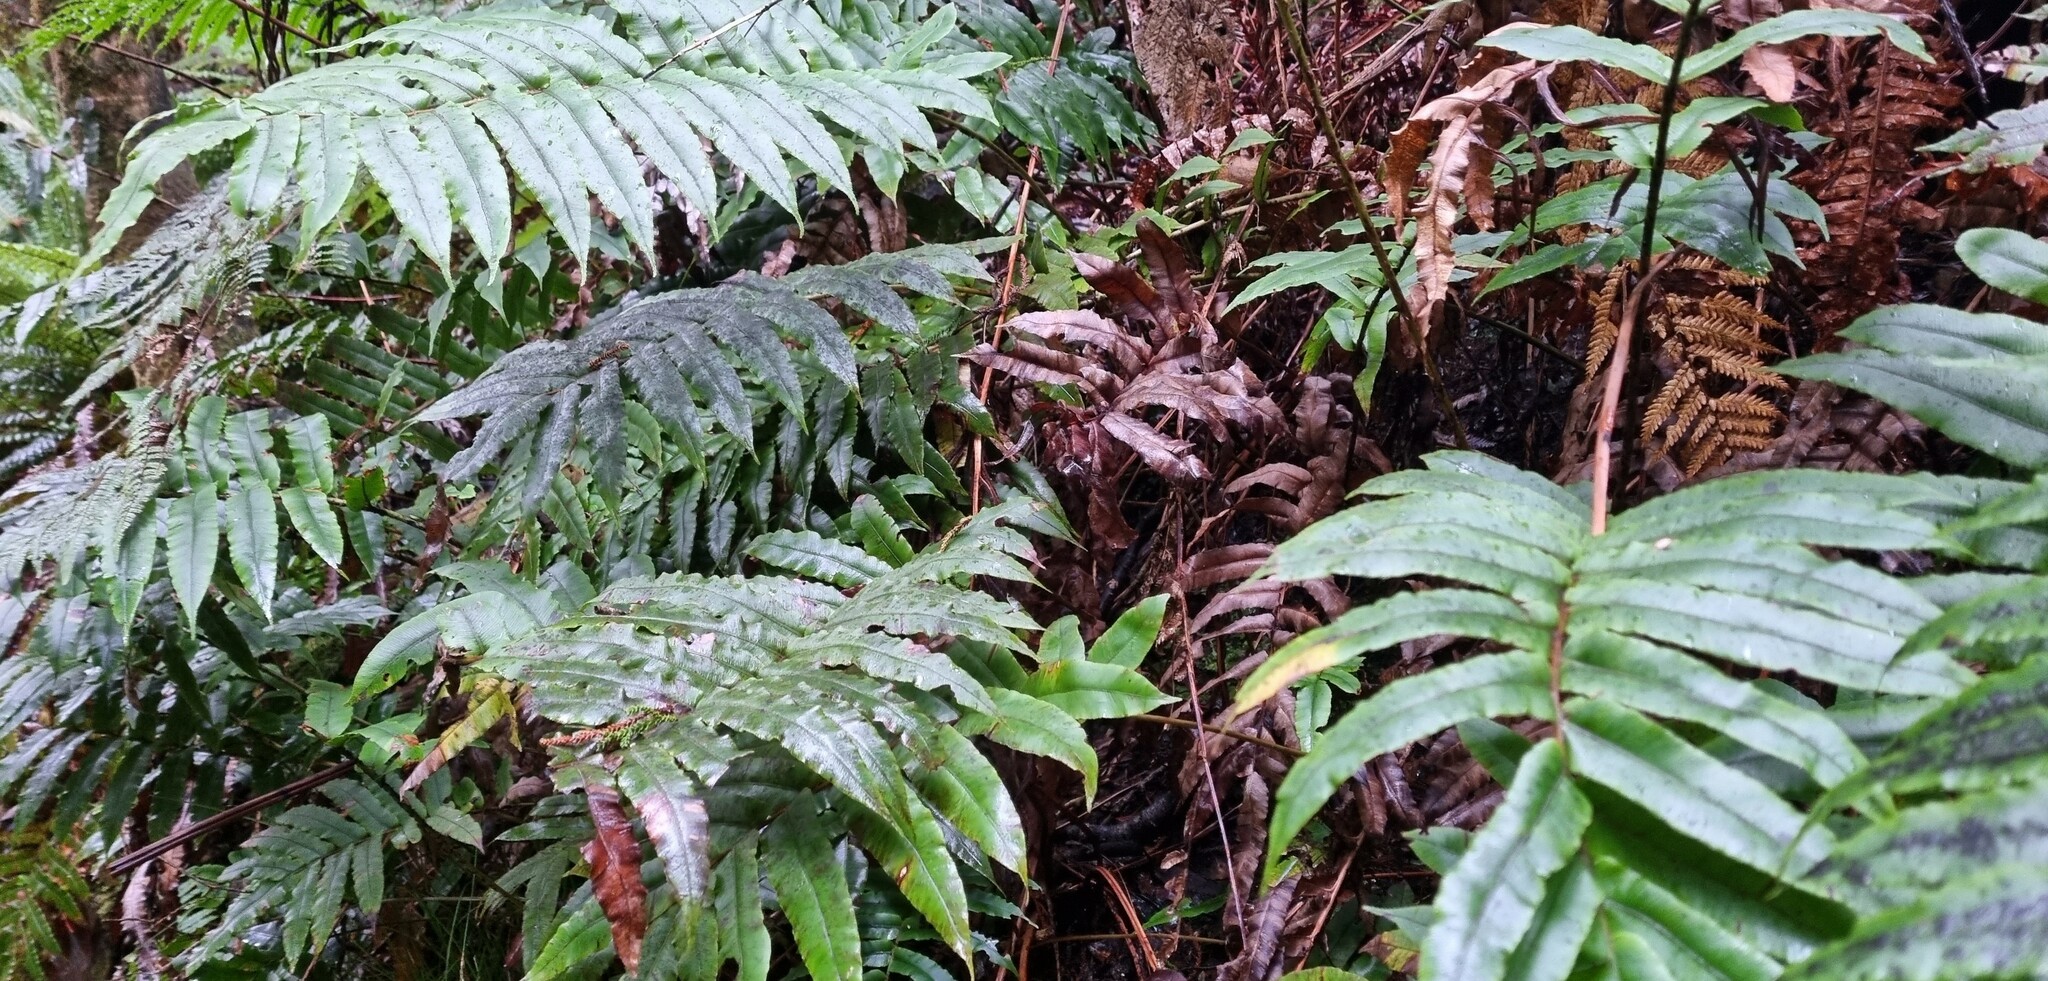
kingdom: Plantae
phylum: Tracheophyta
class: Polypodiopsida
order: Polypodiales
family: Blechnaceae
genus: Parablechnum
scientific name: Parablechnum procerum
